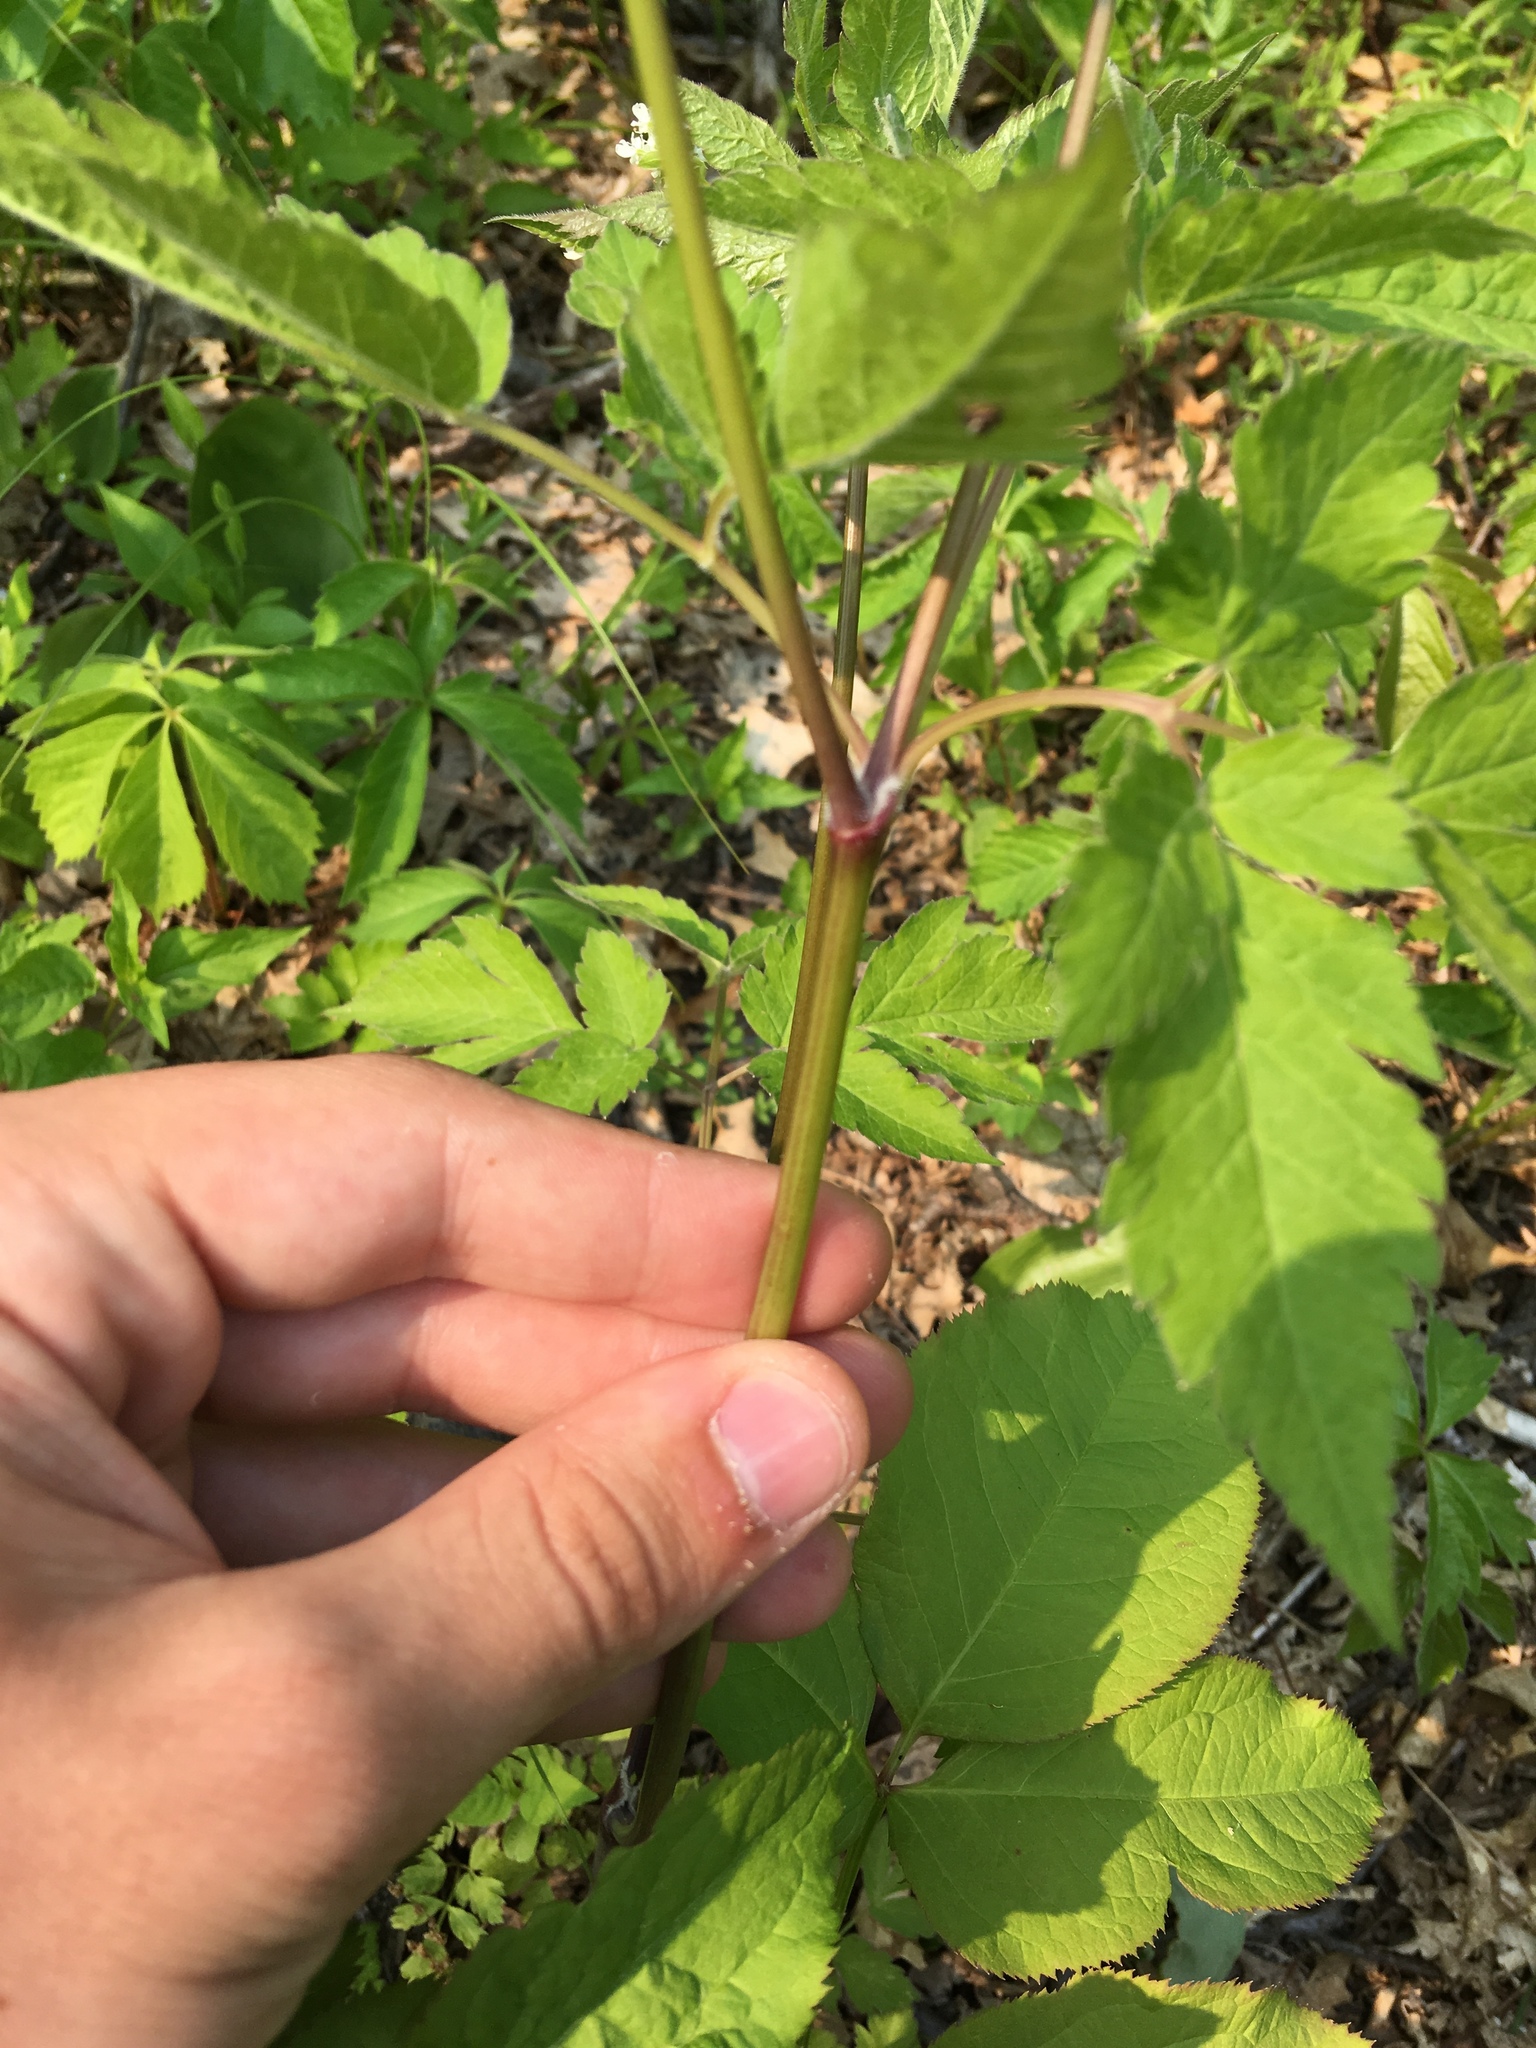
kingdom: Plantae
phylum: Tracheophyta
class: Magnoliopsida
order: Apiales
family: Apiaceae
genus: Osmorhiza
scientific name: Osmorhiza longistylis
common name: Smooth sweet cicely
